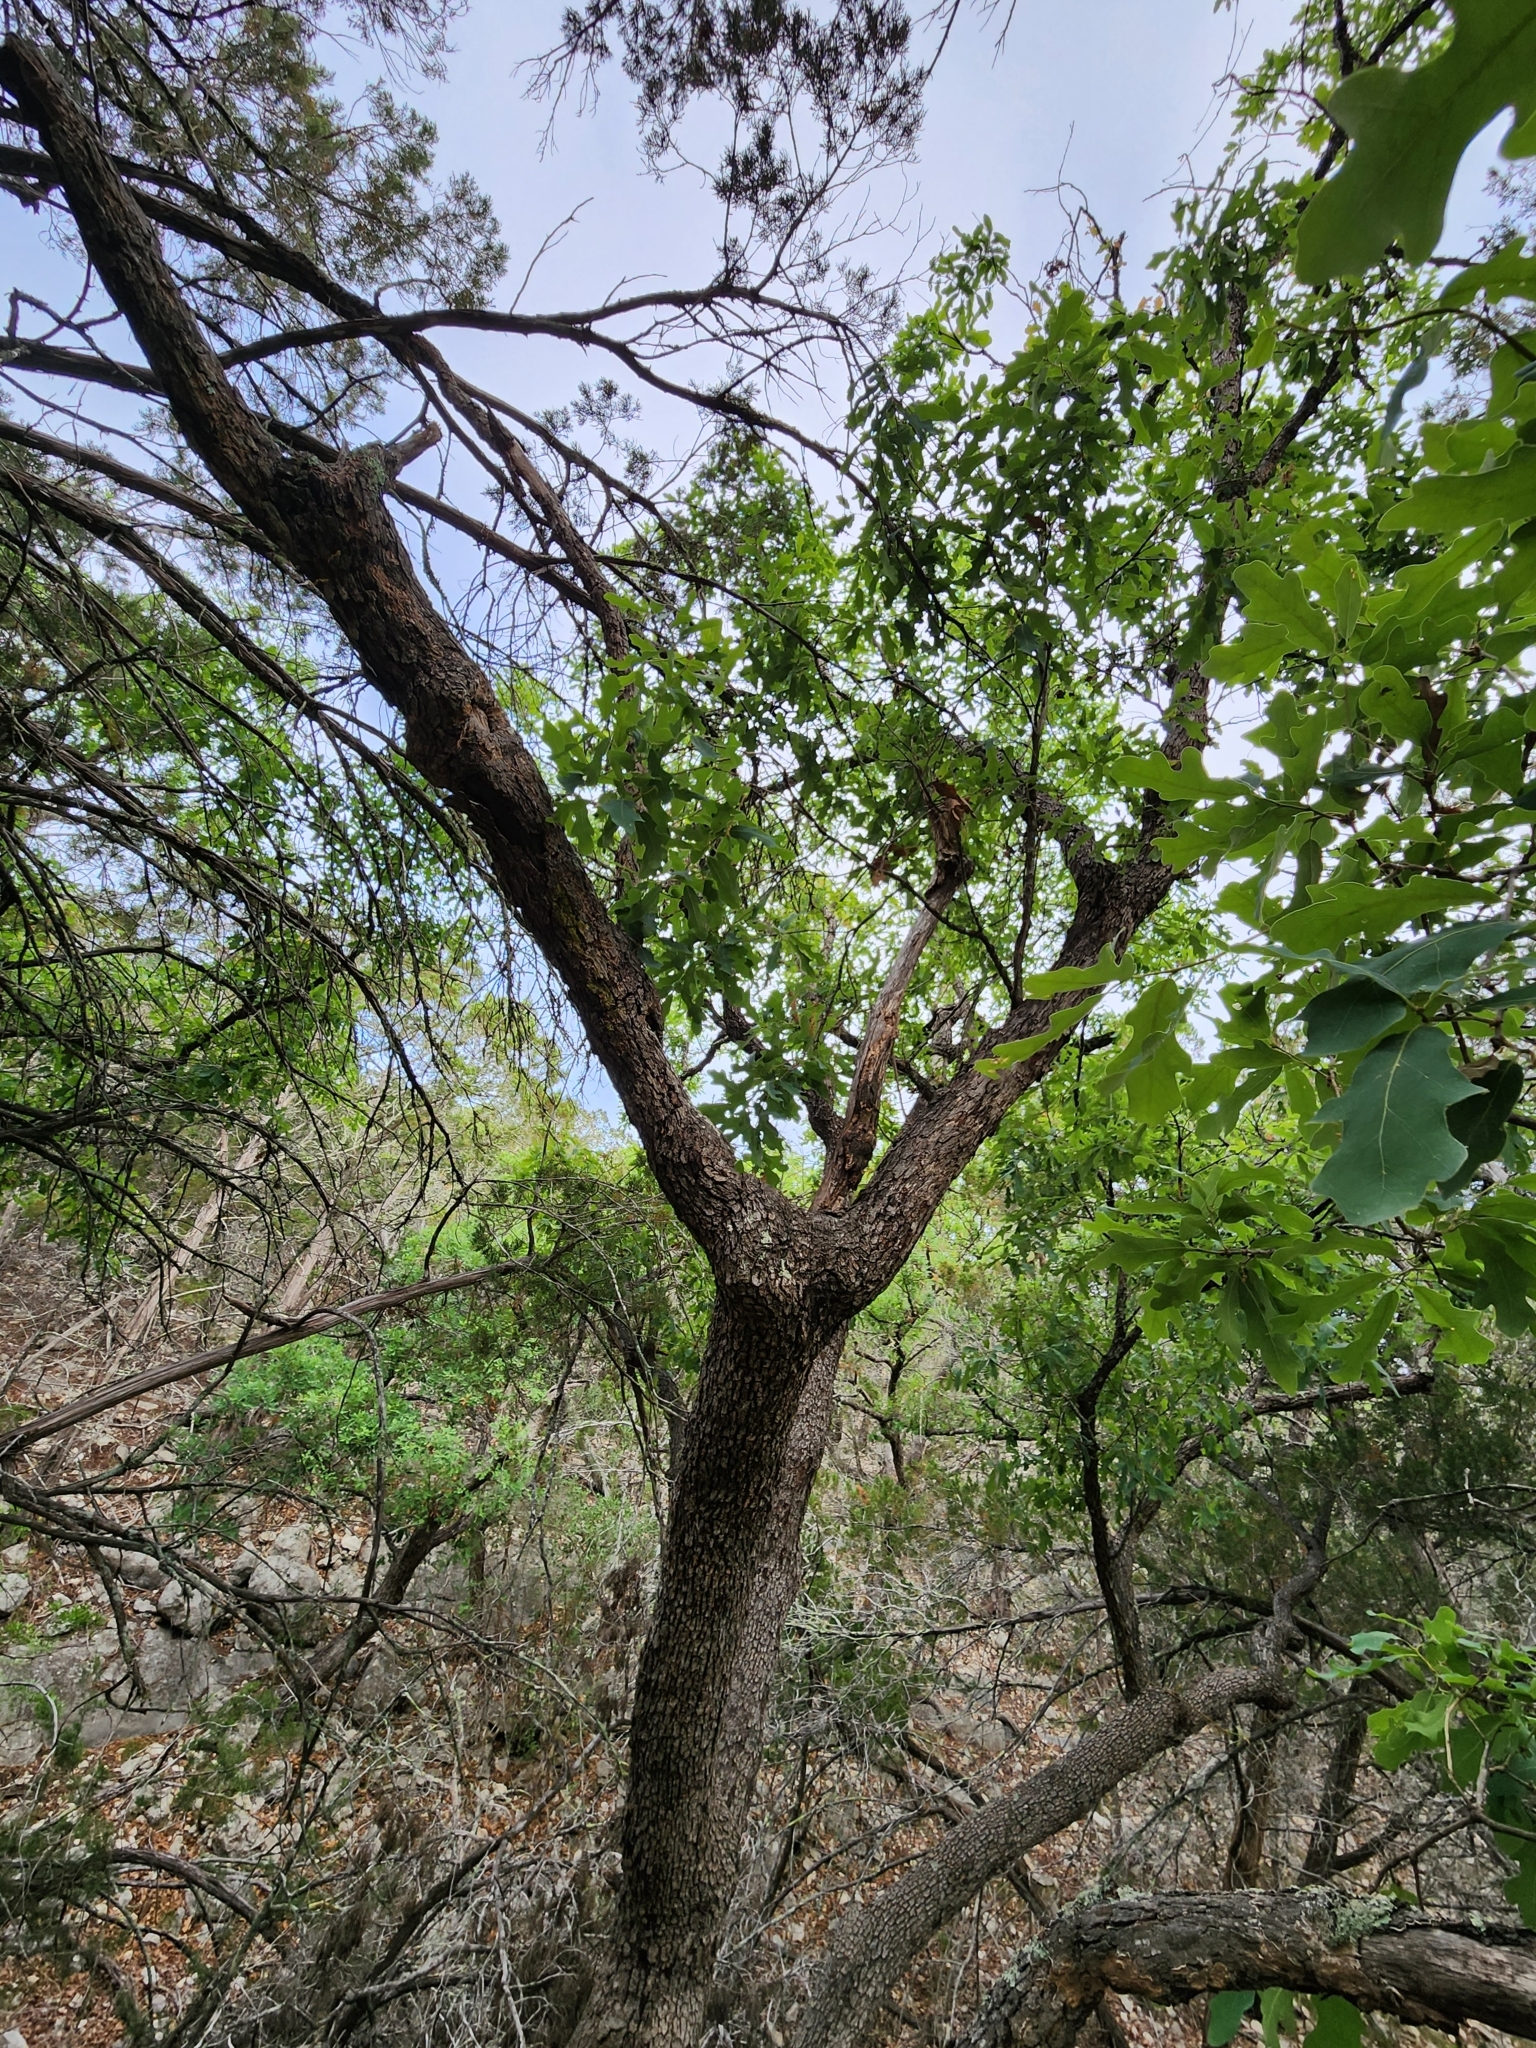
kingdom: Plantae
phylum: Tracheophyta
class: Magnoliopsida
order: Fagales
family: Fagaceae
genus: Quercus
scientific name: Quercus laceyi
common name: Lacey oak
